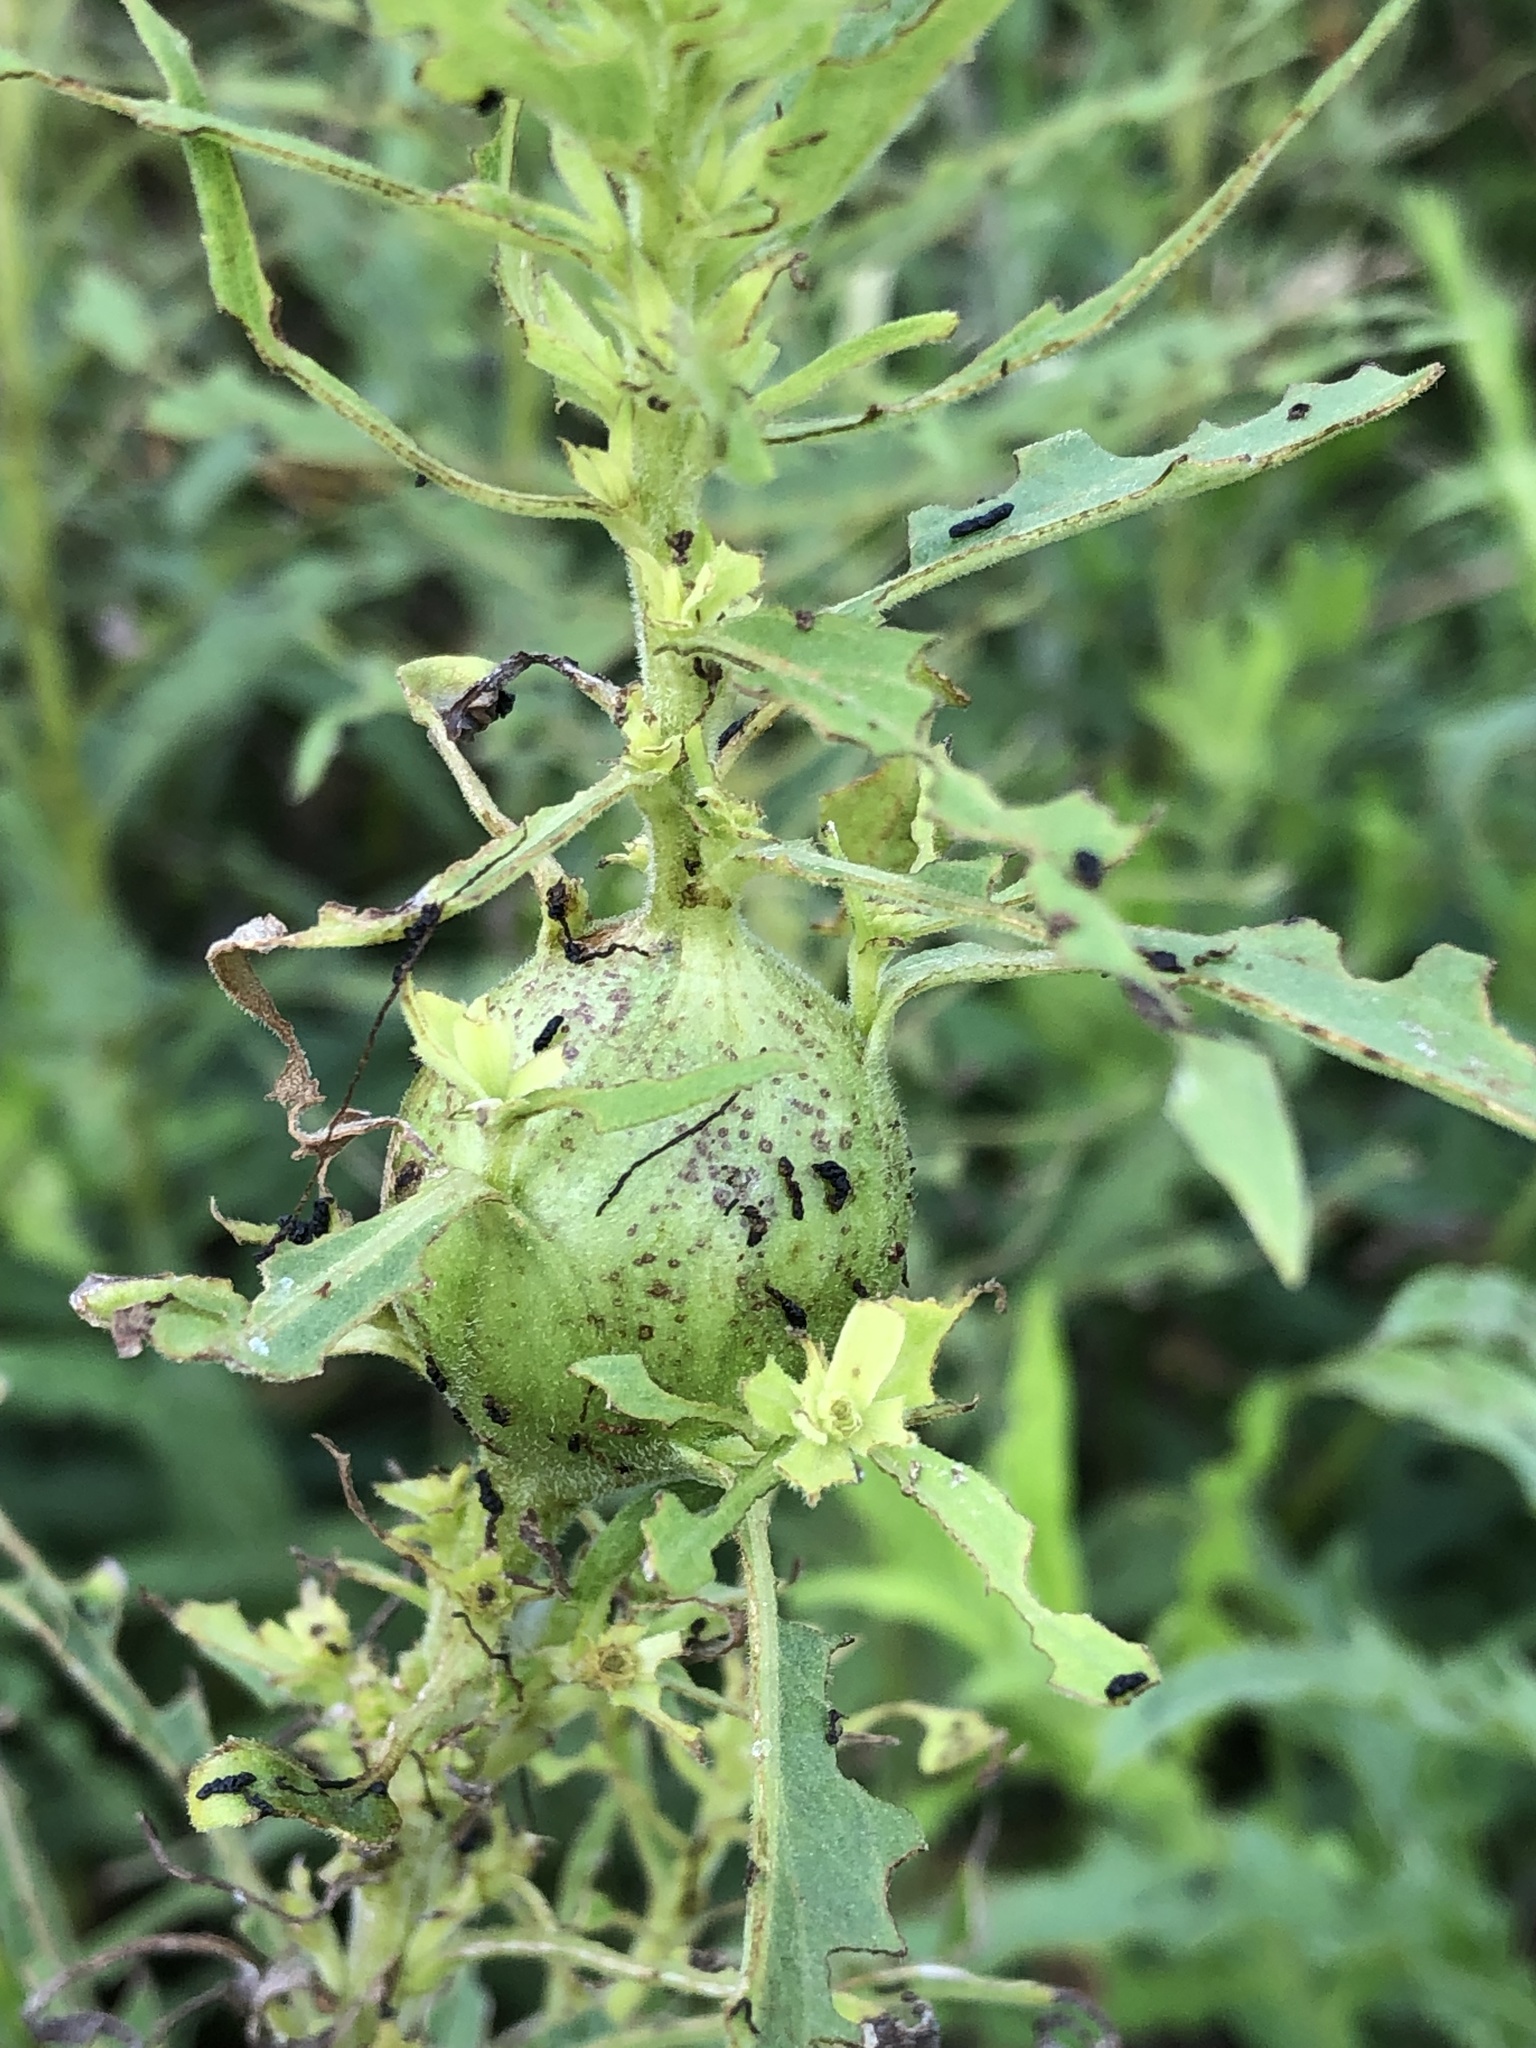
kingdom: Animalia
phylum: Arthropoda
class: Insecta
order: Diptera
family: Tephritidae
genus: Eurosta
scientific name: Eurosta solidaginis
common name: Goldenrod gall fly
